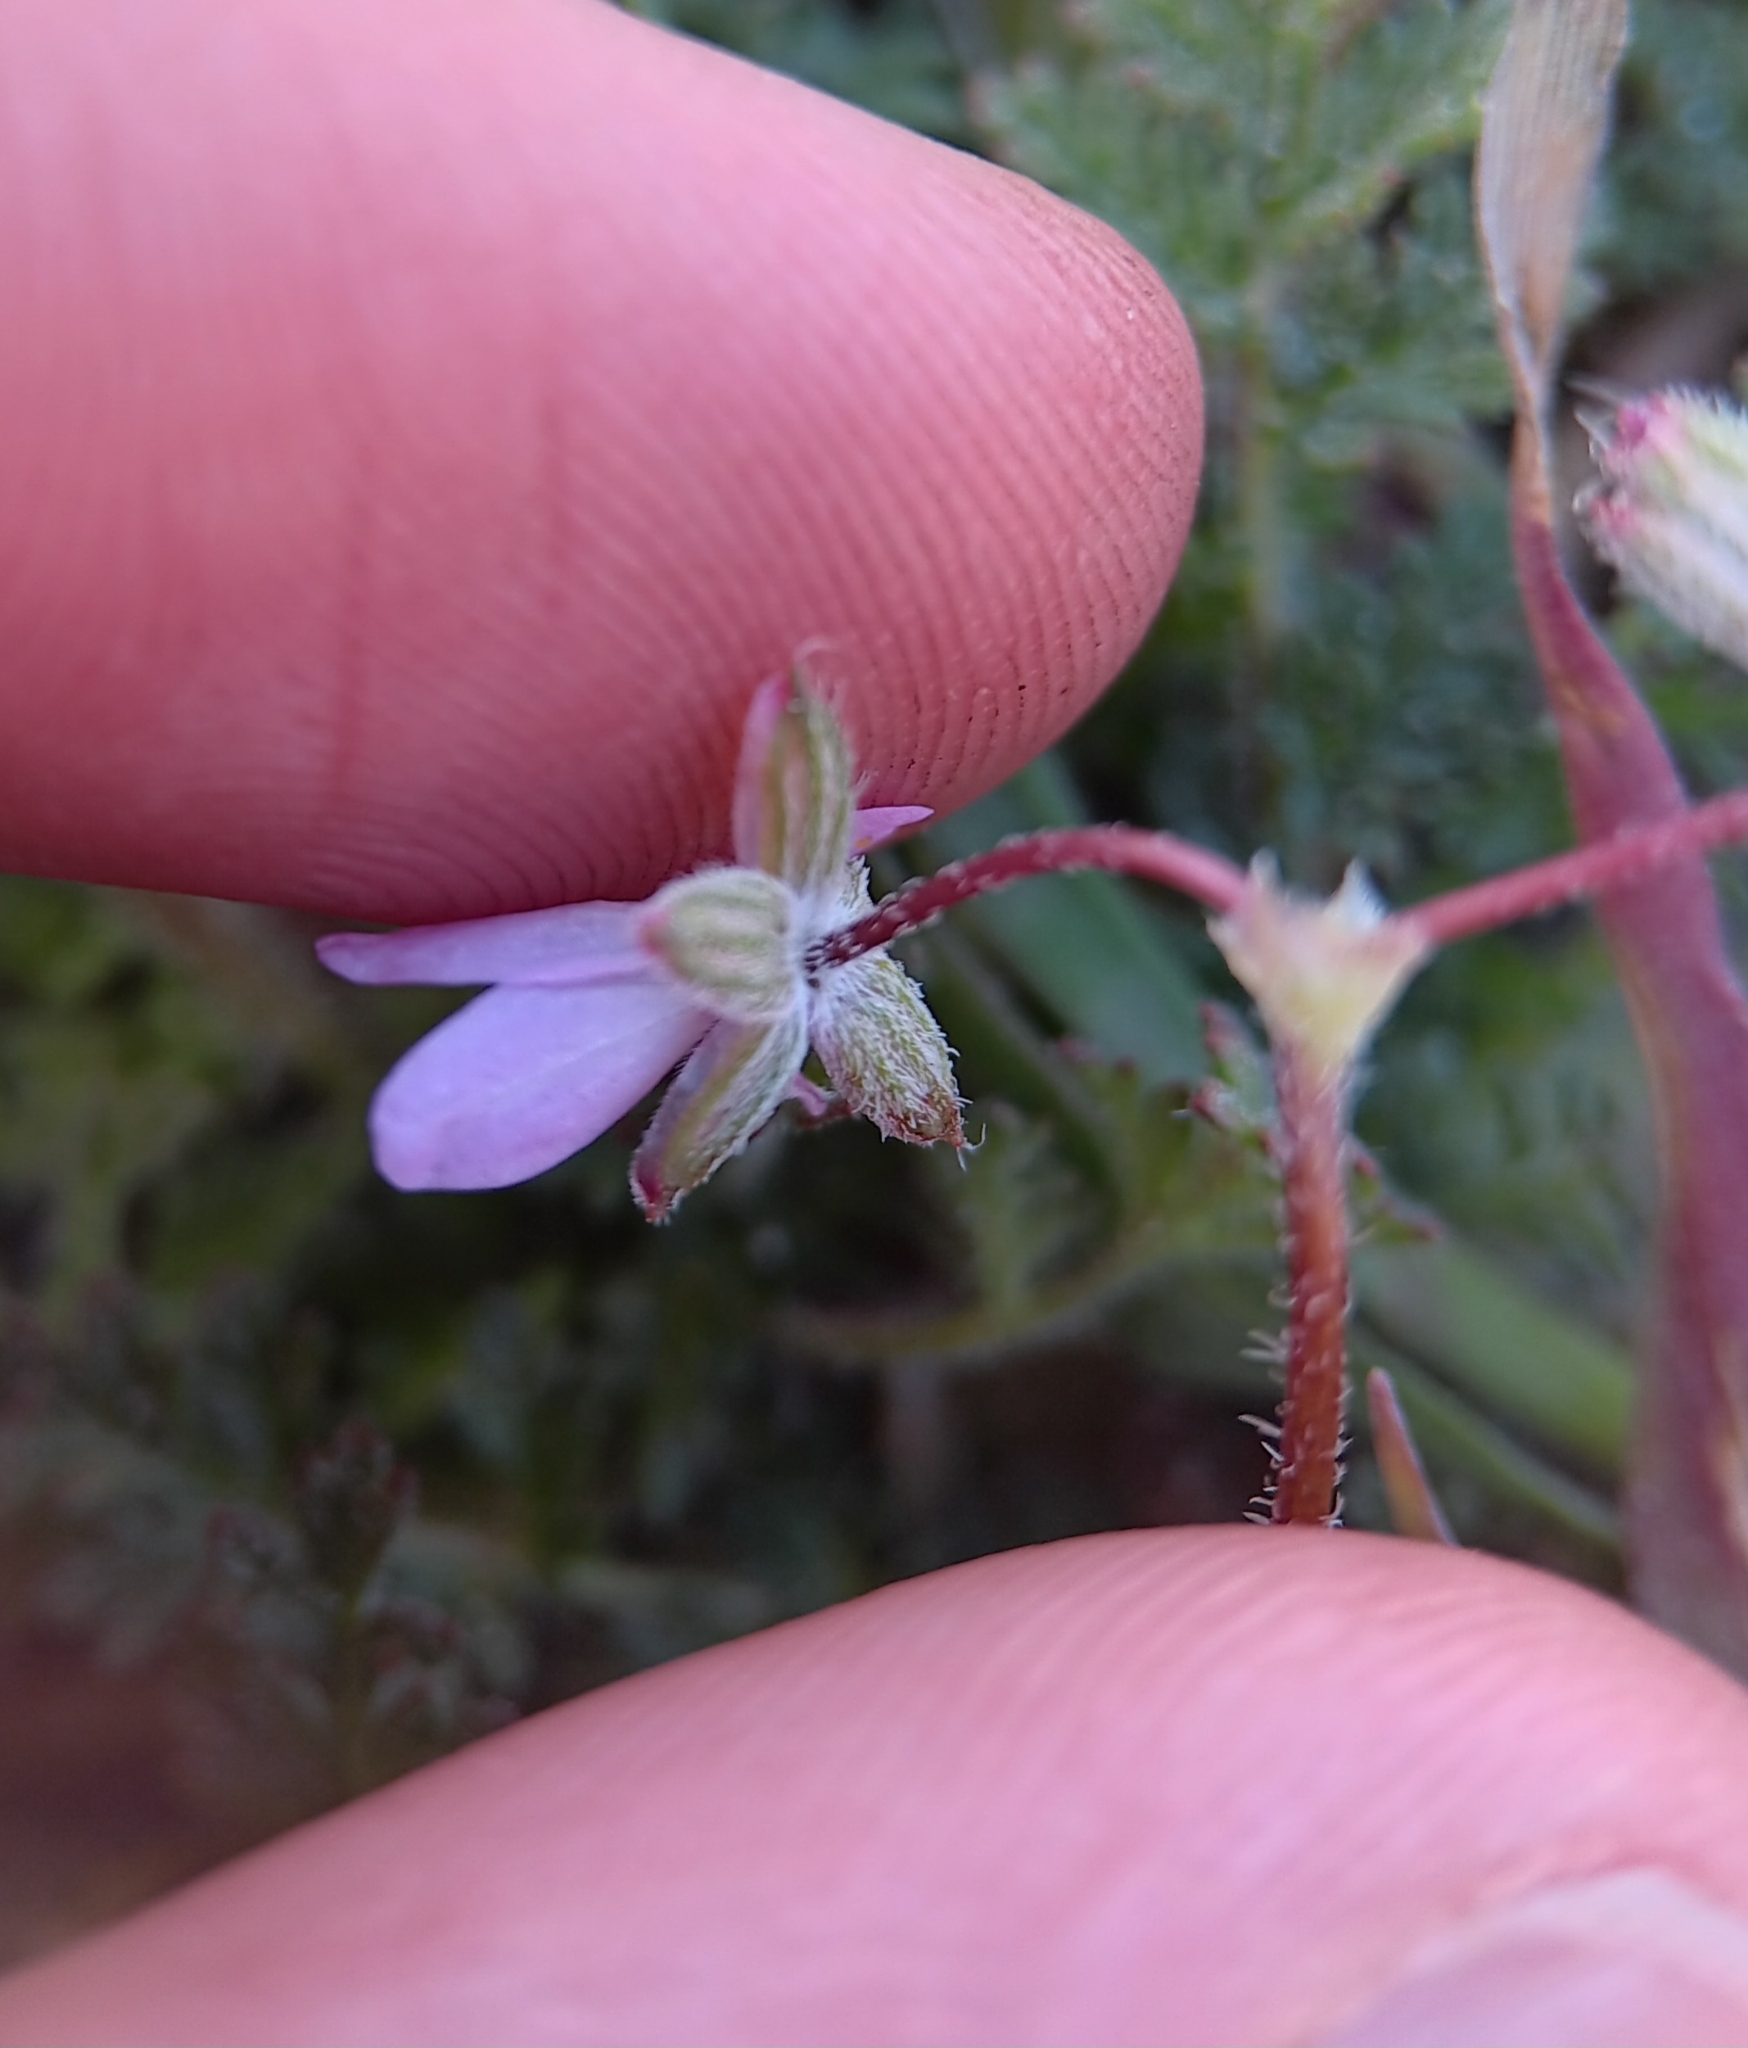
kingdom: Plantae
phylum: Tracheophyta
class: Magnoliopsida
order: Geraniales
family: Geraniaceae
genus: Erodium
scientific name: Erodium cicutarium
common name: Common stork's-bill
